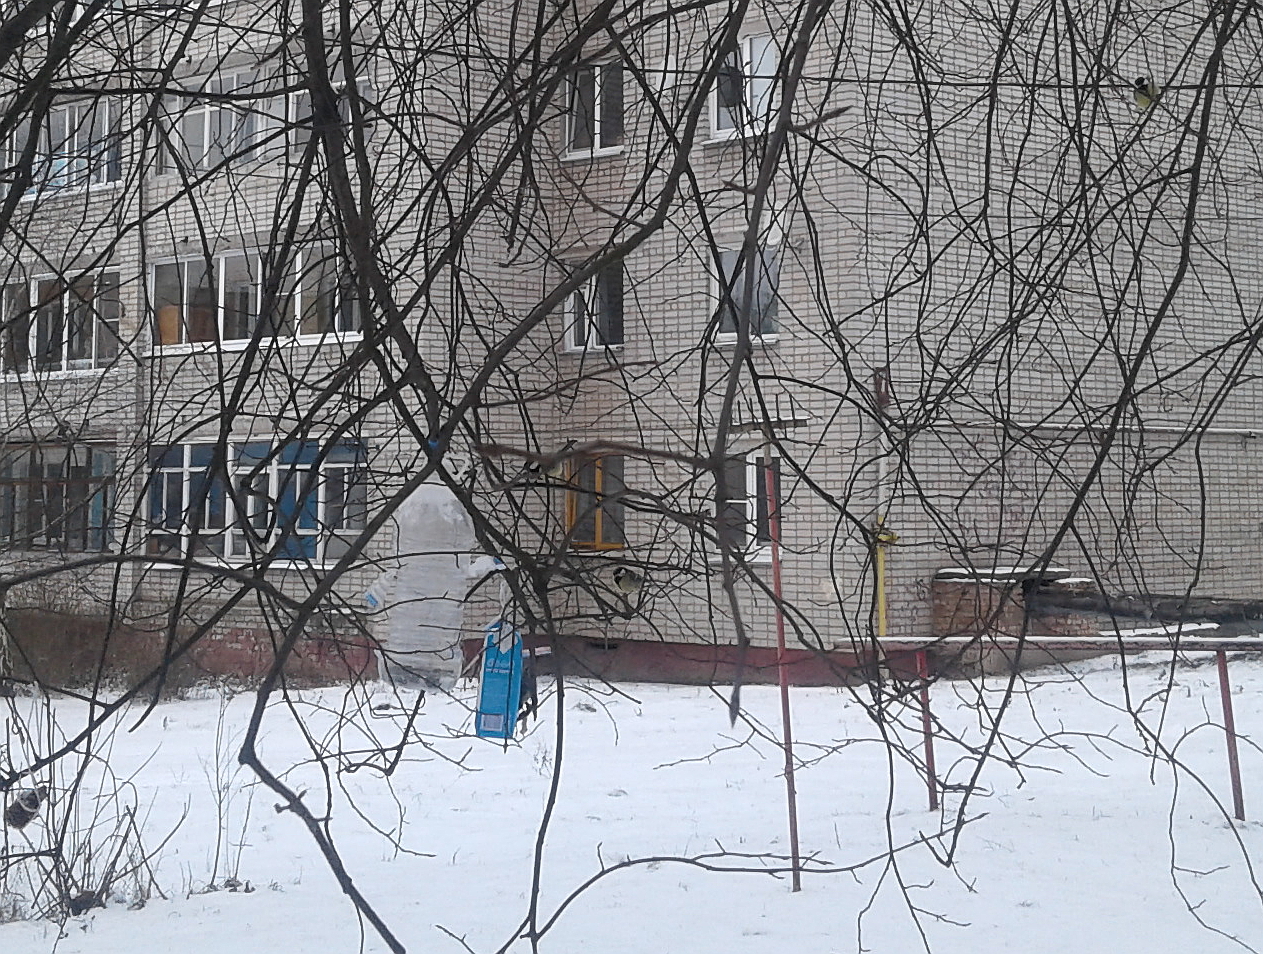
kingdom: Animalia
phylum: Chordata
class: Aves
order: Passeriformes
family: Paridae
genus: Parus
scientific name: Parus major
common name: Great tit
